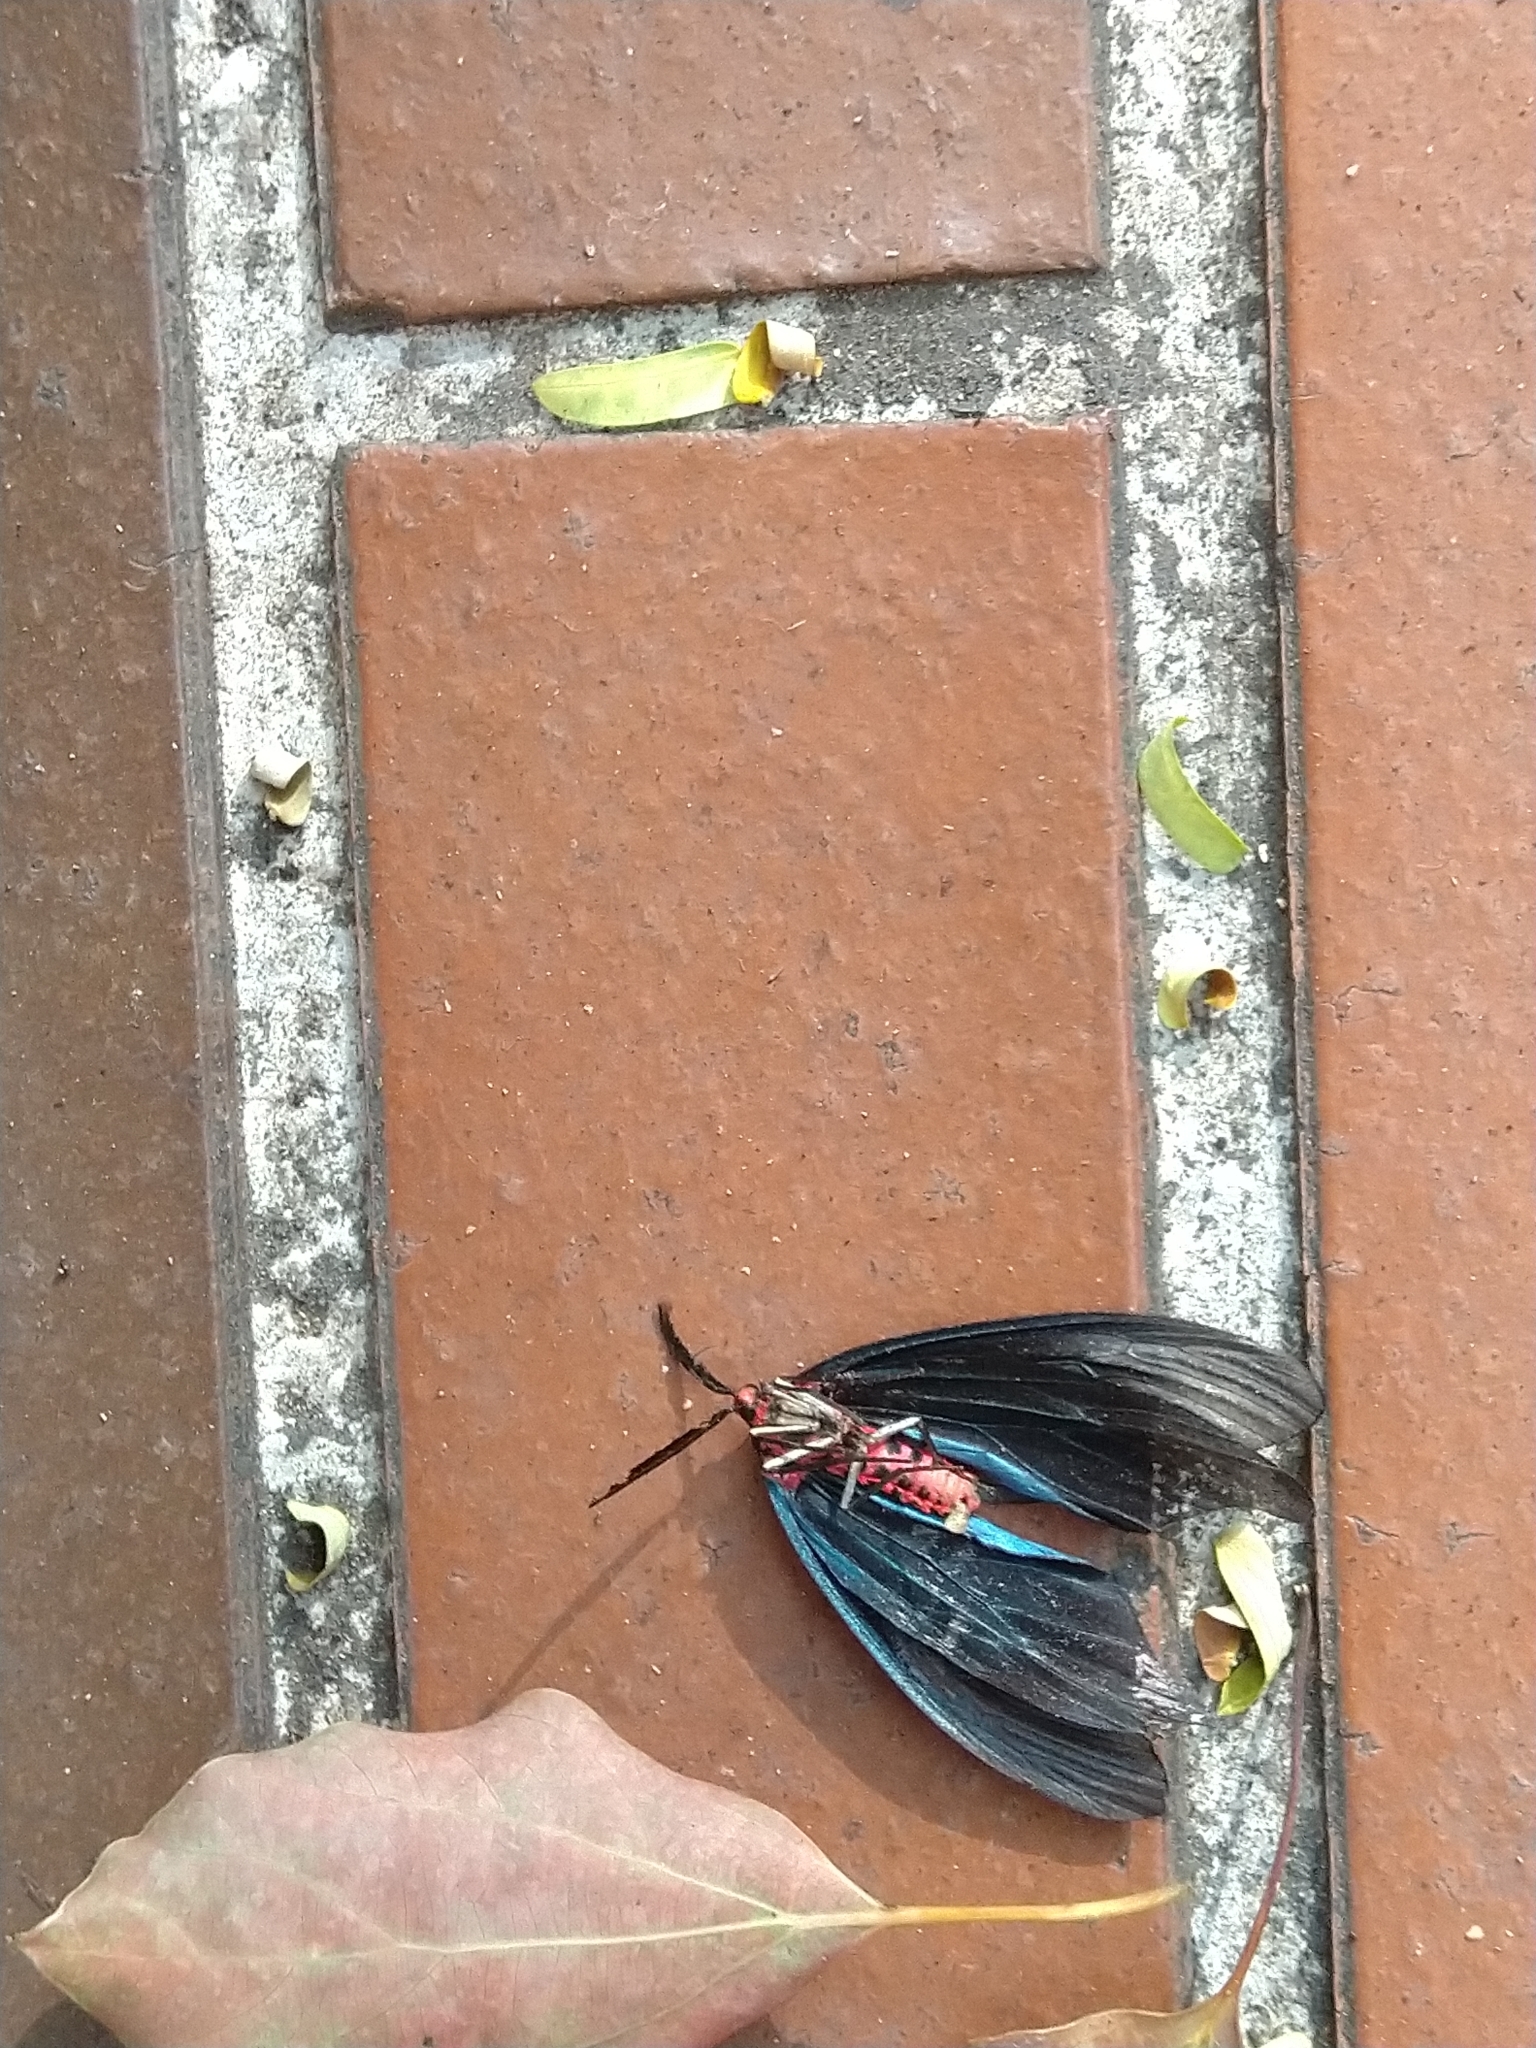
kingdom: Animalia
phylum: Arthropoda
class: Insecta
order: Lepidoptera
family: Zygaenidae
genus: Histia
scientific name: Histia flabellicornis
